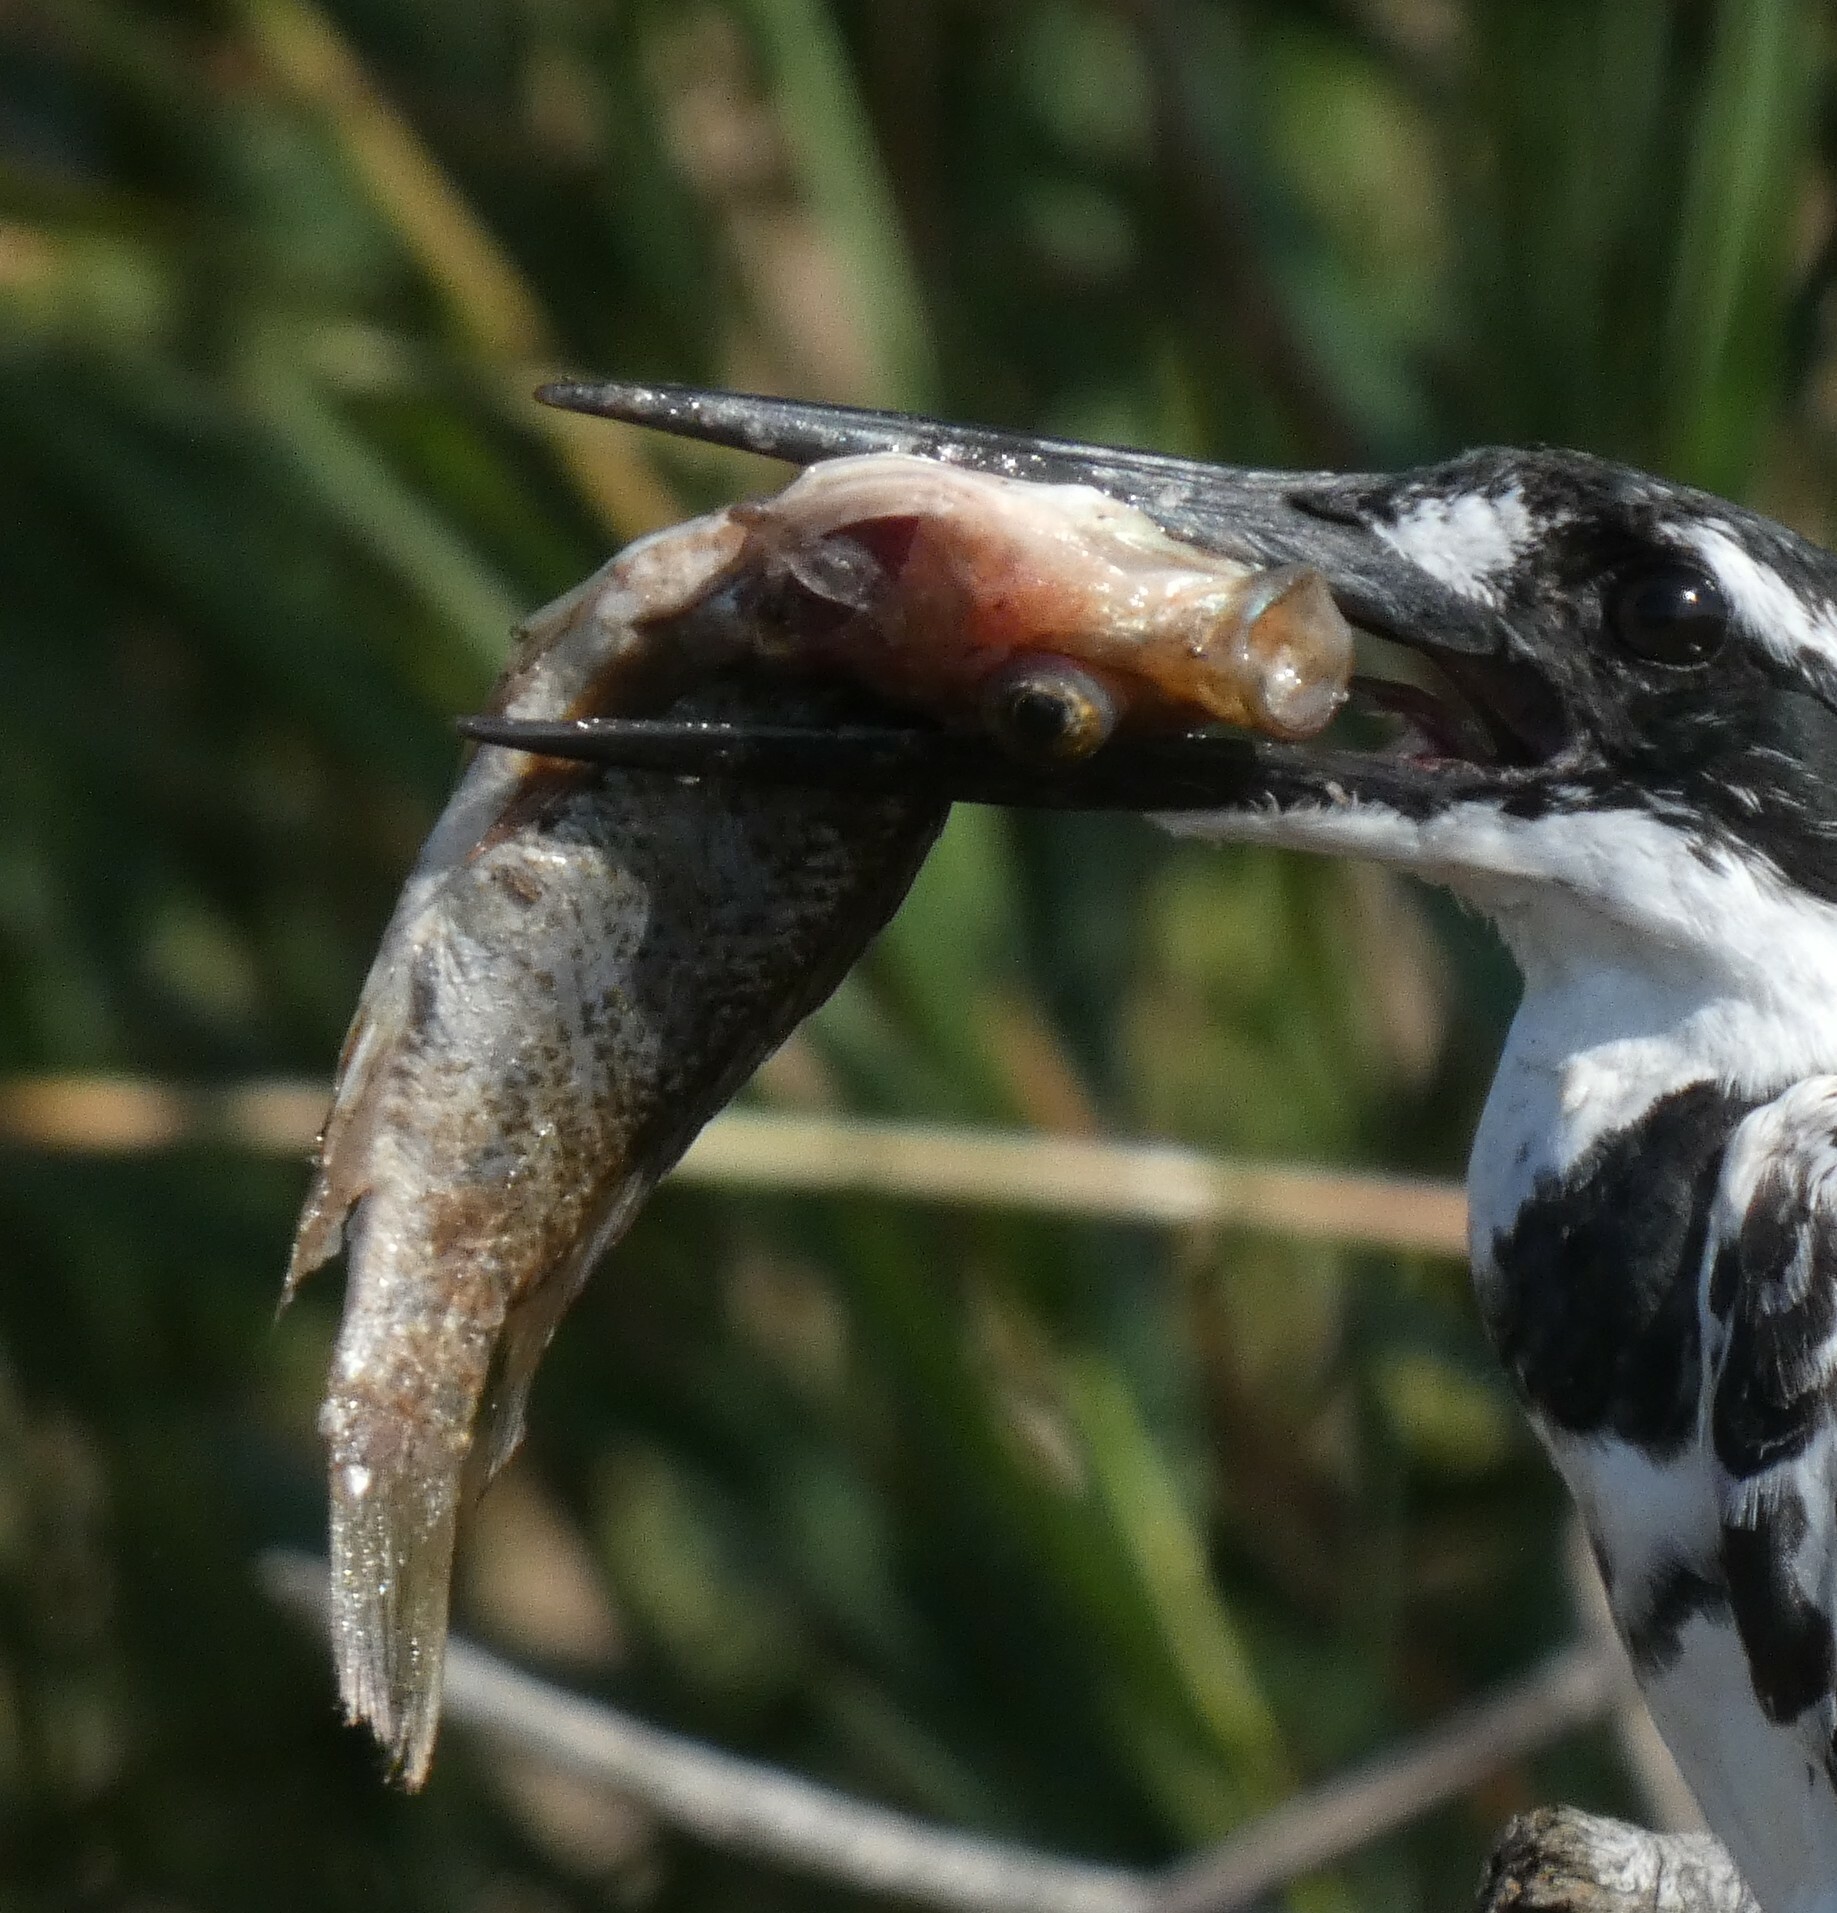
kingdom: Animalia
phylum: Chordata
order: Perciformes
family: Cichlidae
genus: Oreochromis
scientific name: Oreochromis mossambicus
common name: Mozambique tilapia
